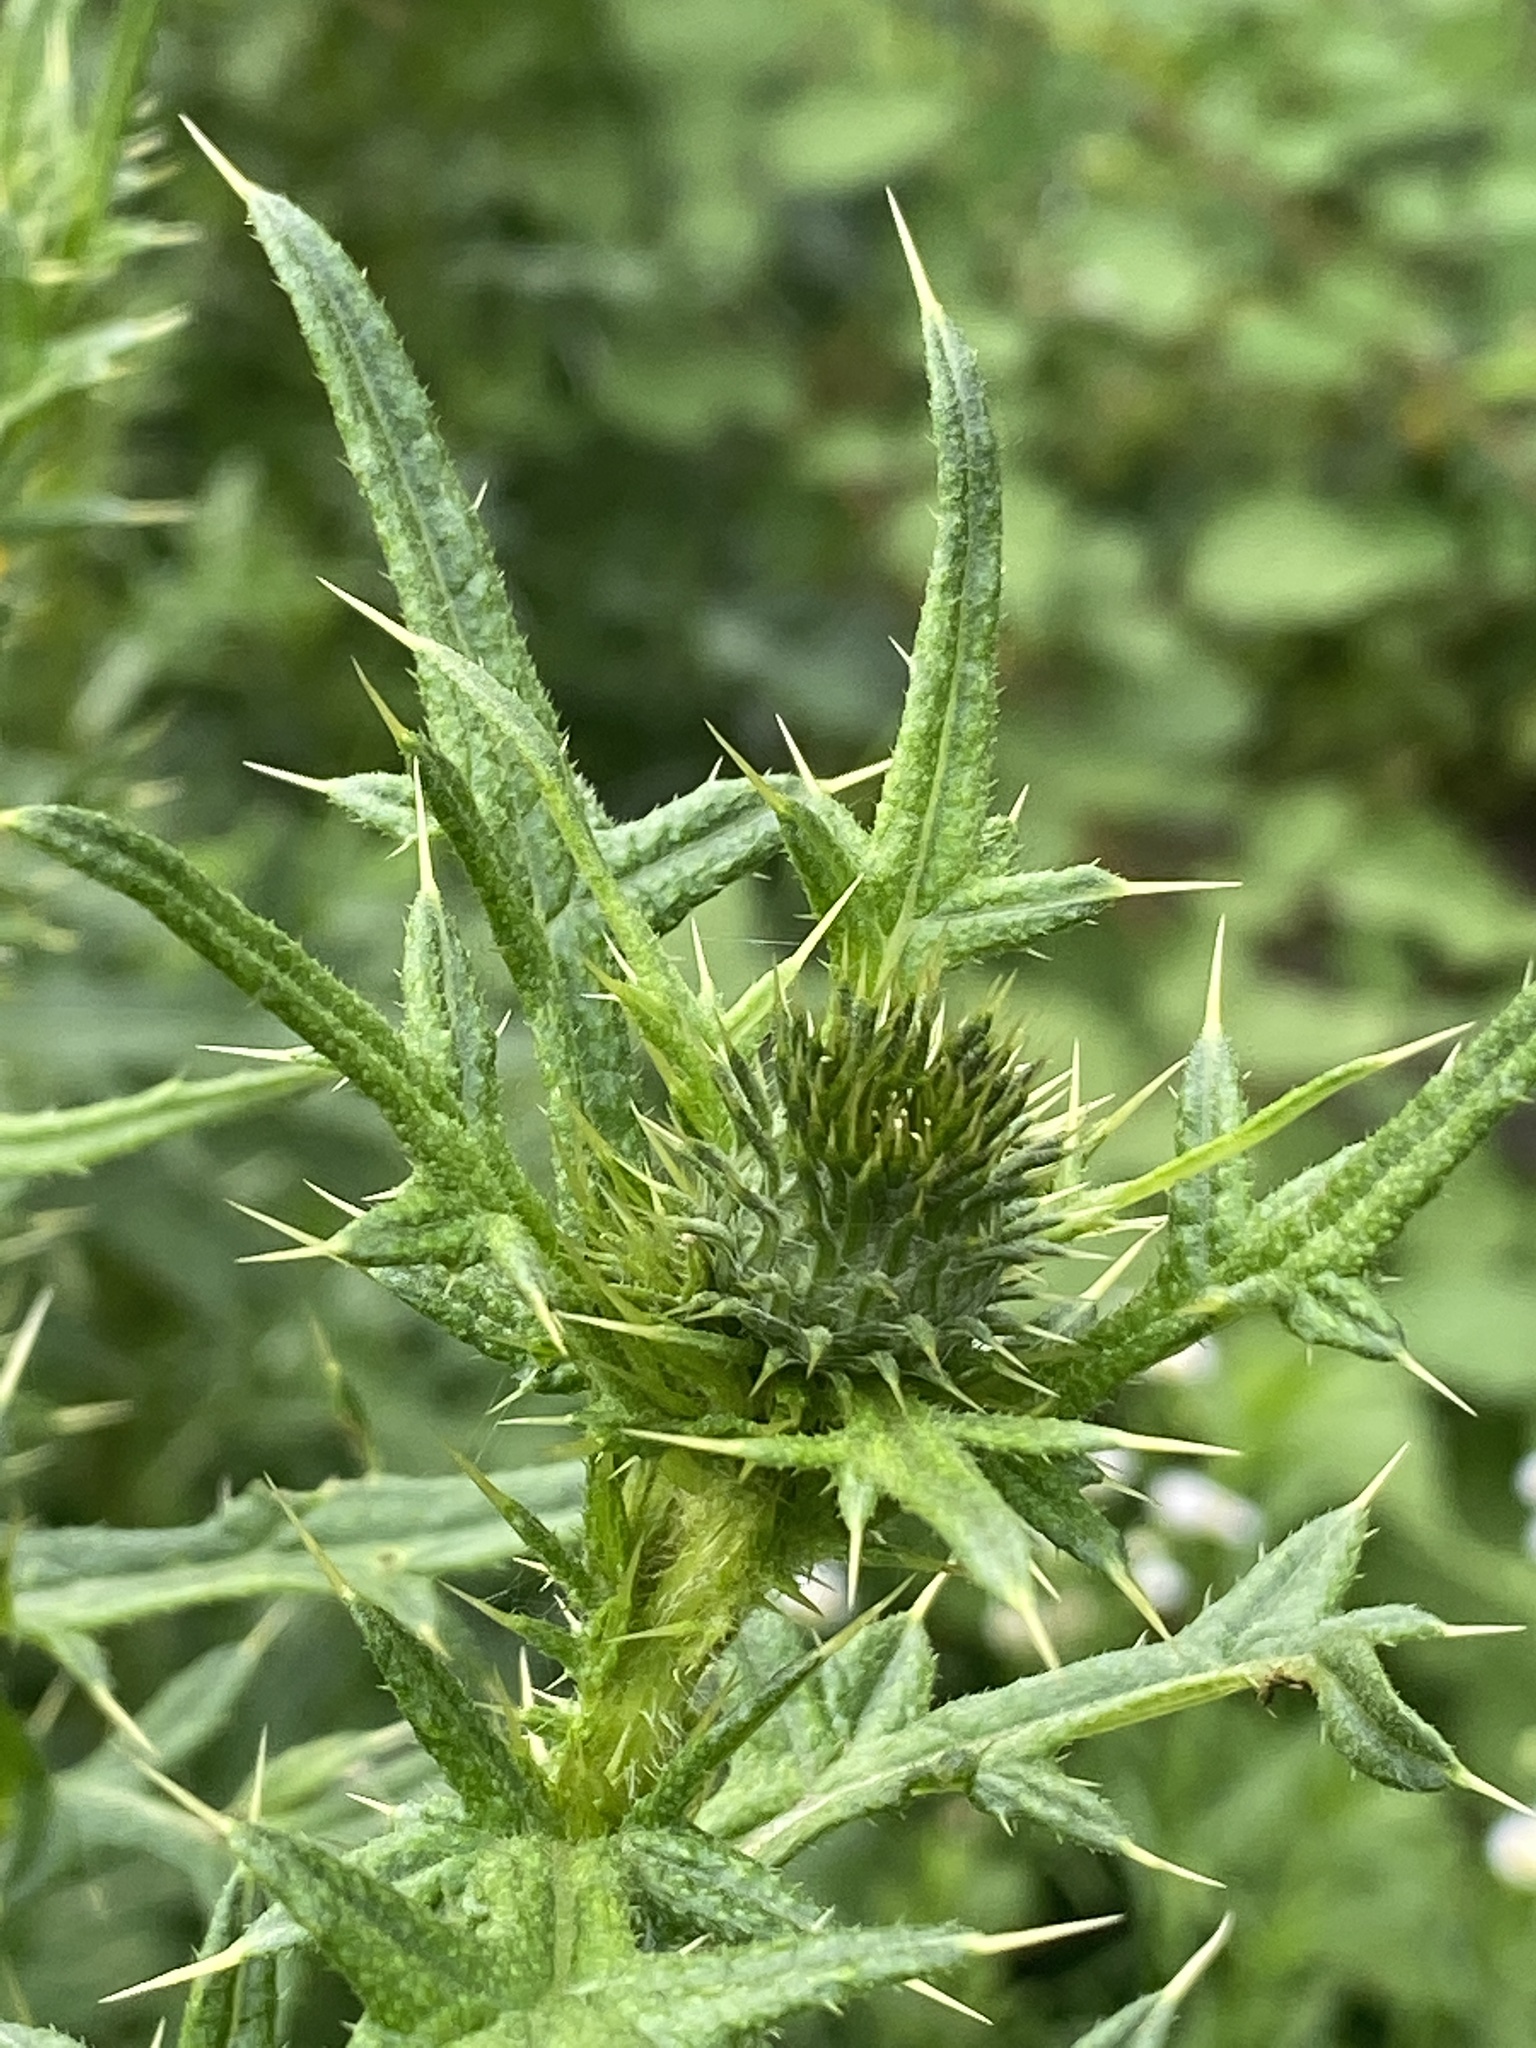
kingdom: Plantae
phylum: Tracheophyta
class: Magnoliopsida
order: Asterales
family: Asteraceae
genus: Cirsium
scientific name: Cirsium vulgare
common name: Bull thistle
